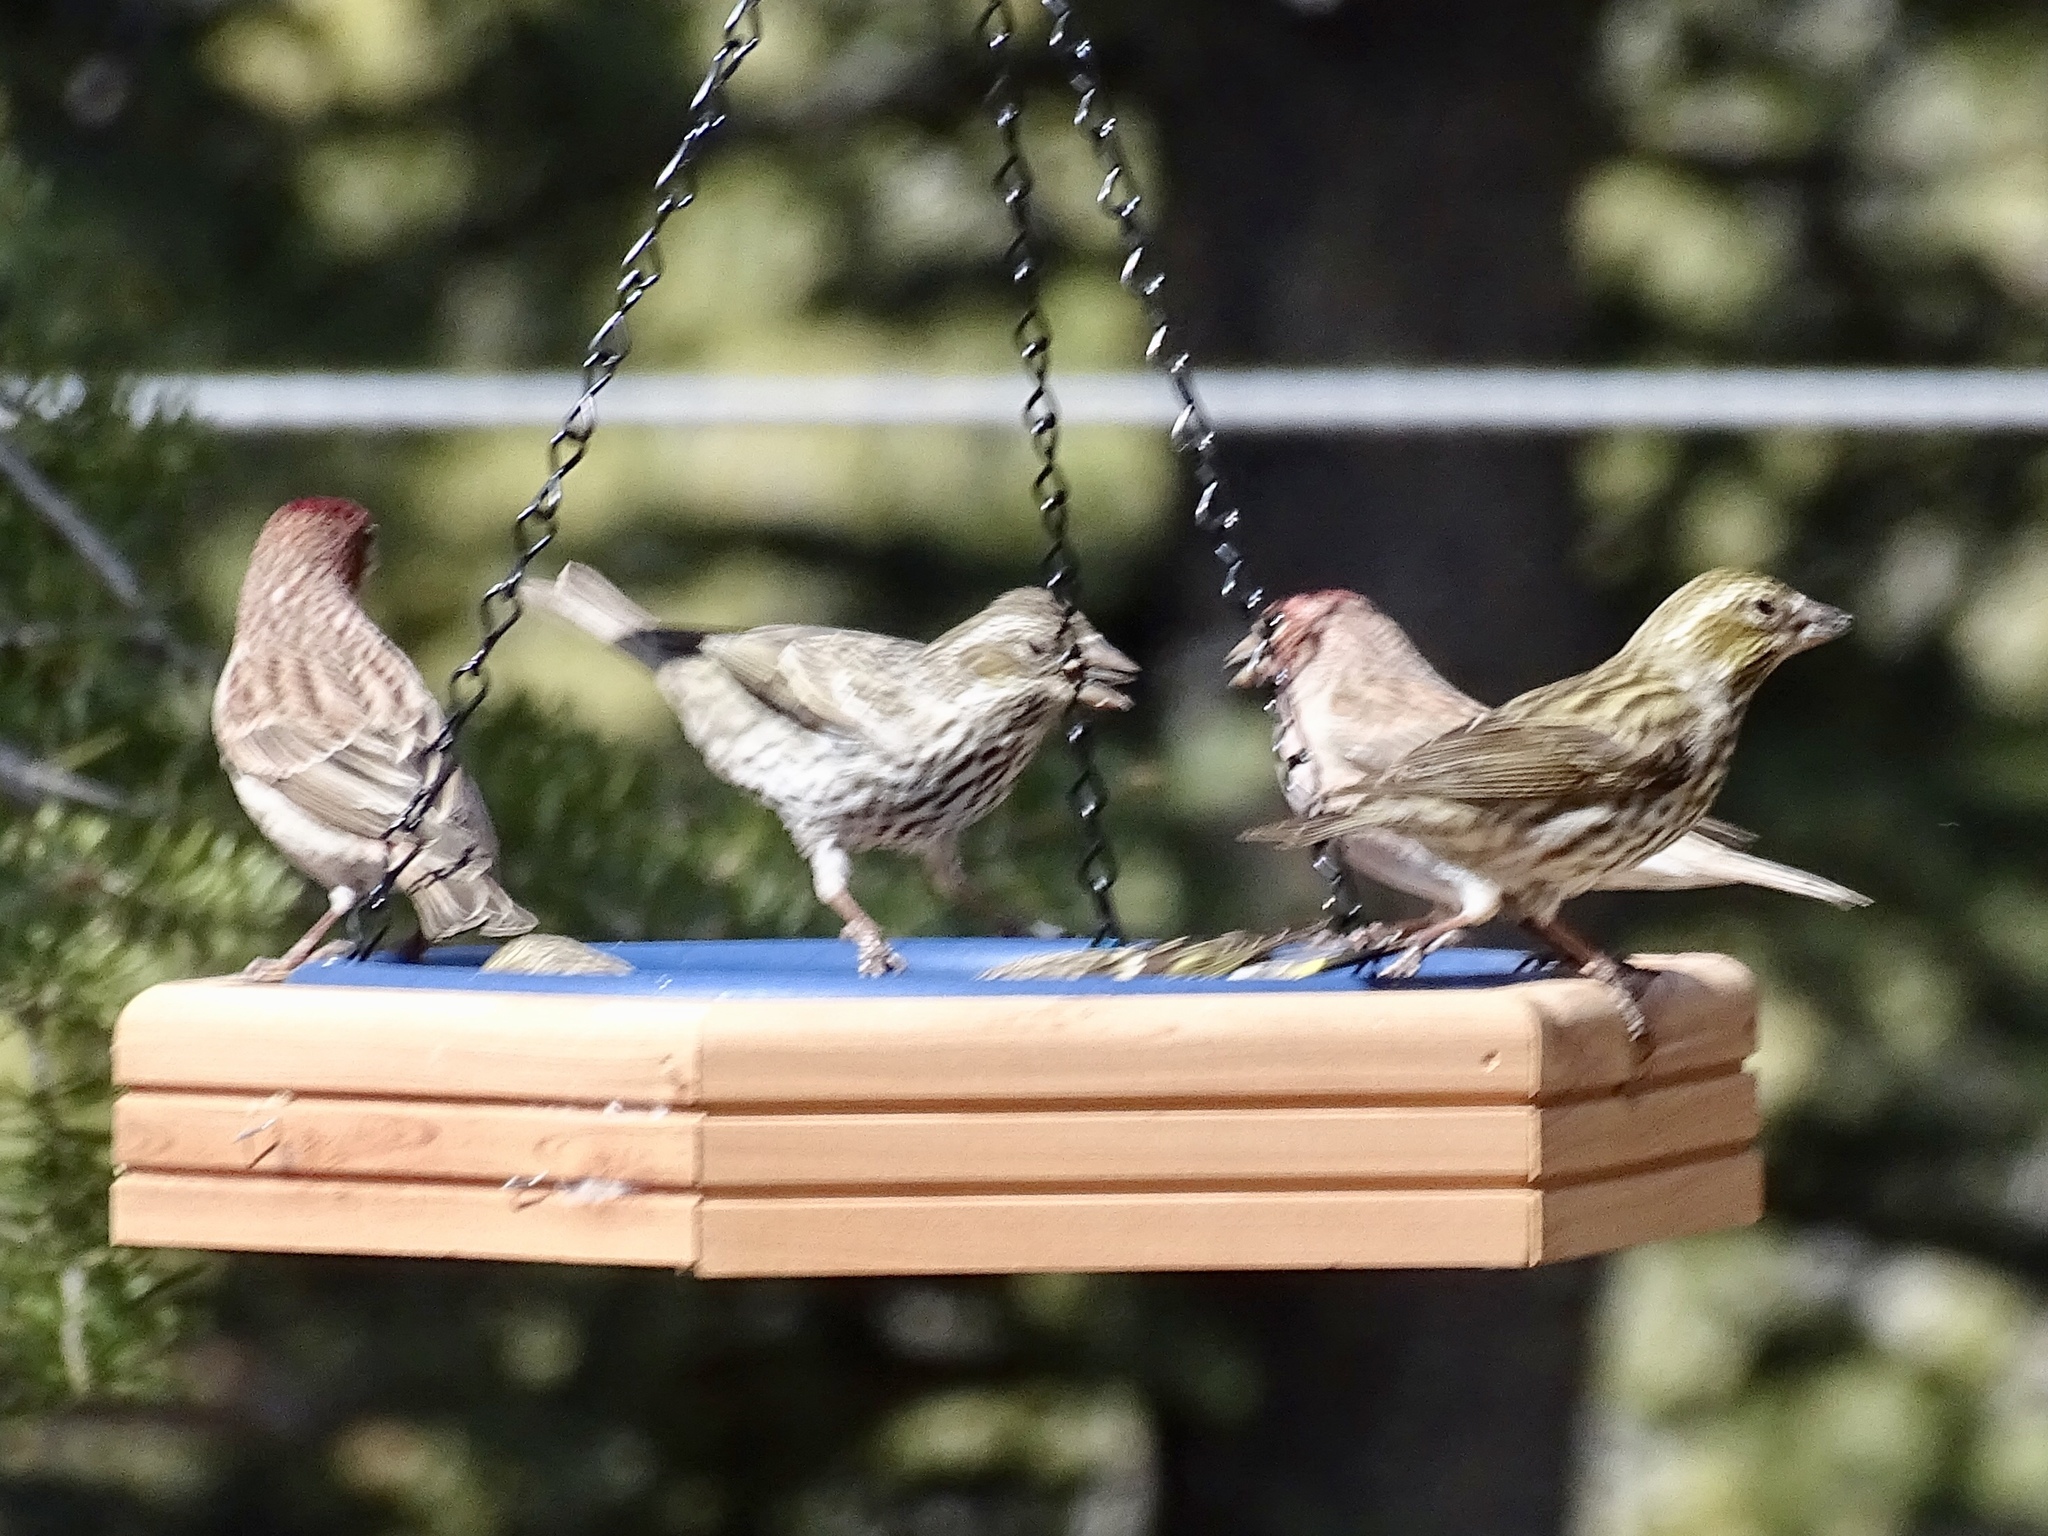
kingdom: Animalia
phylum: Chordata
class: Aves
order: Passeriformes
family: Fringillidae
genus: Haemorhous
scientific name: Haemorhous cassinii
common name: Cassin's finch
